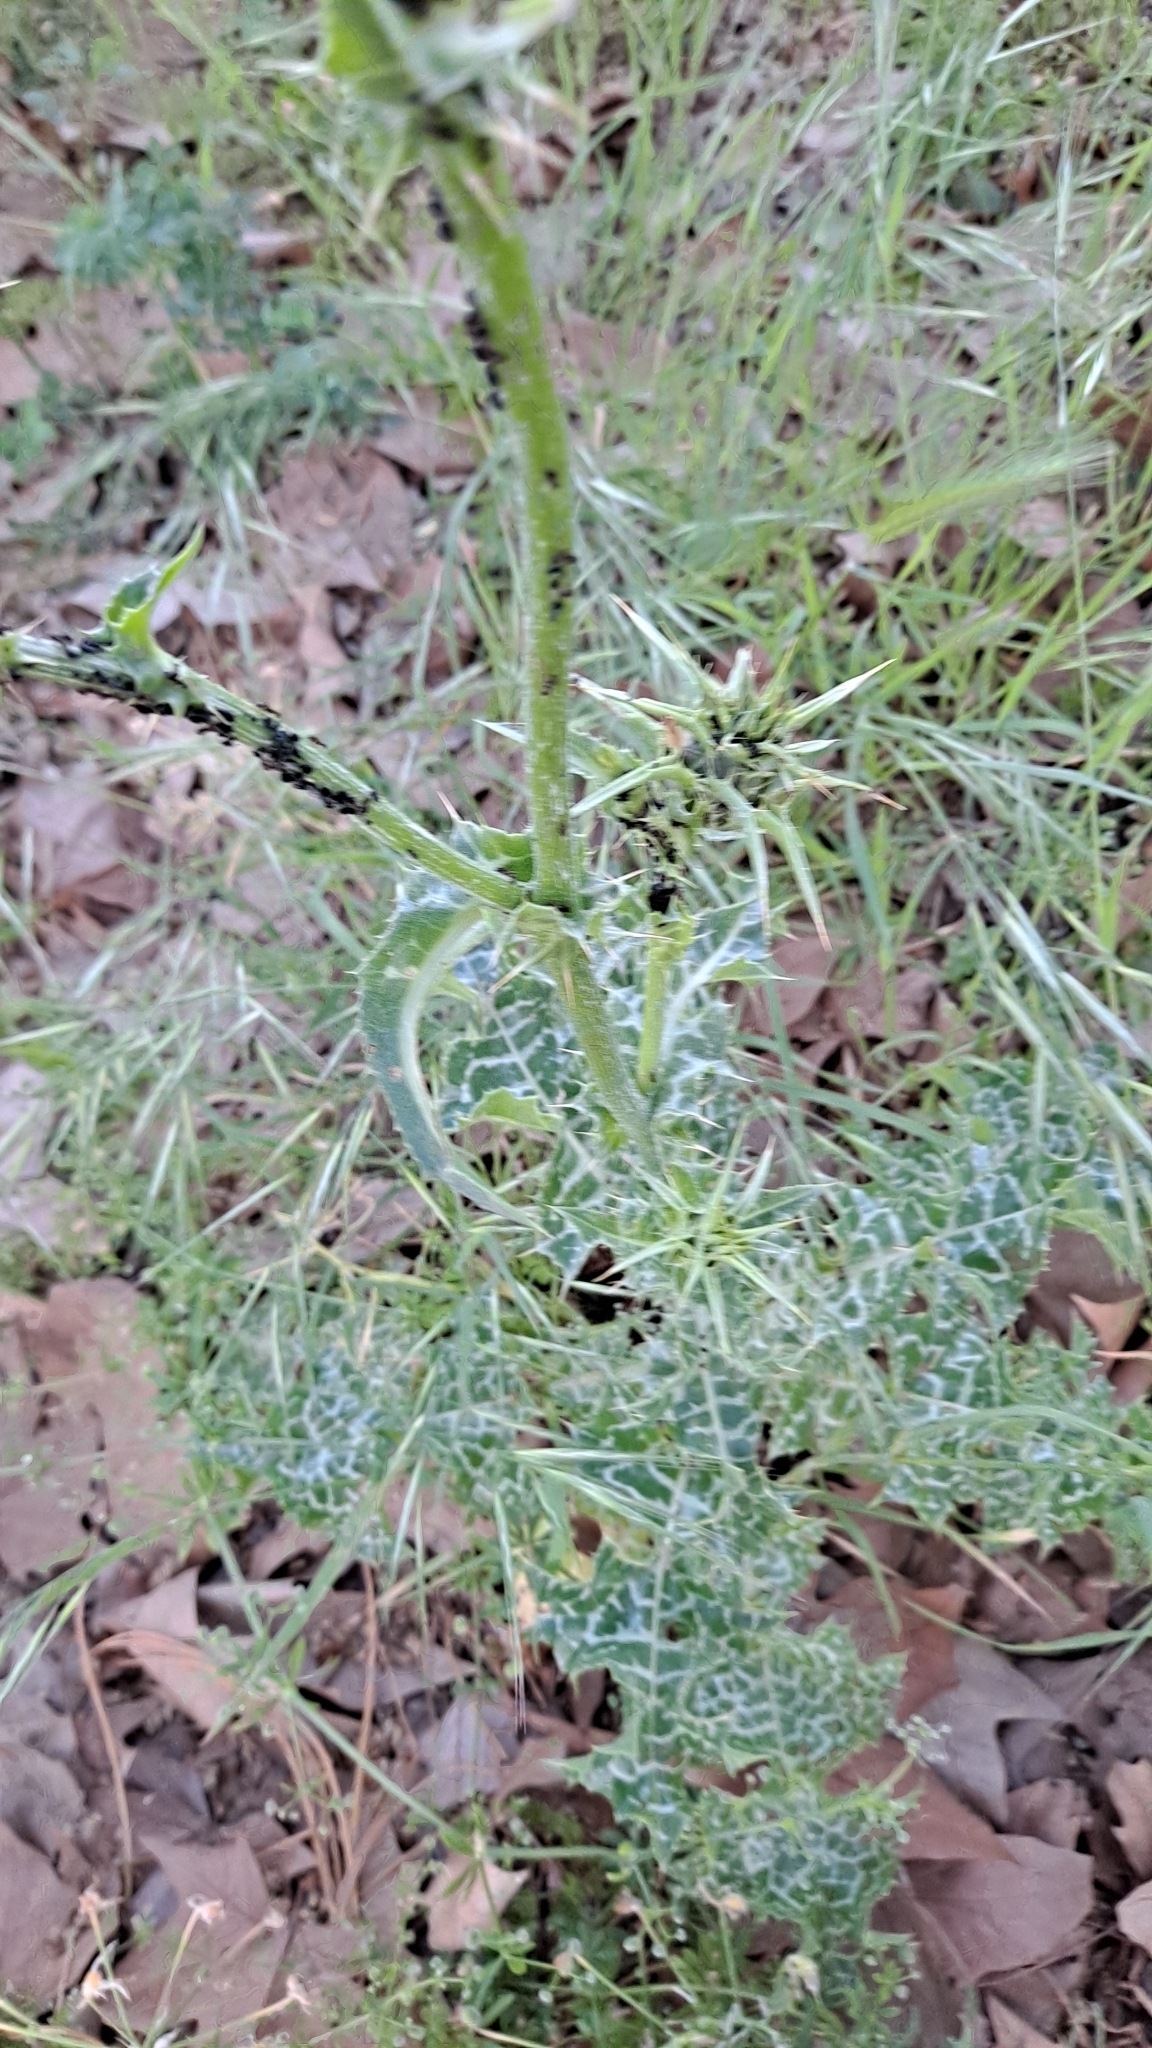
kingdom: Plantae
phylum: Tracheophyta
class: Magnoliopsida
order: Asterales
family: Asteraceae
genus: Silybum
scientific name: Silybum marianum
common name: Milk thistle
